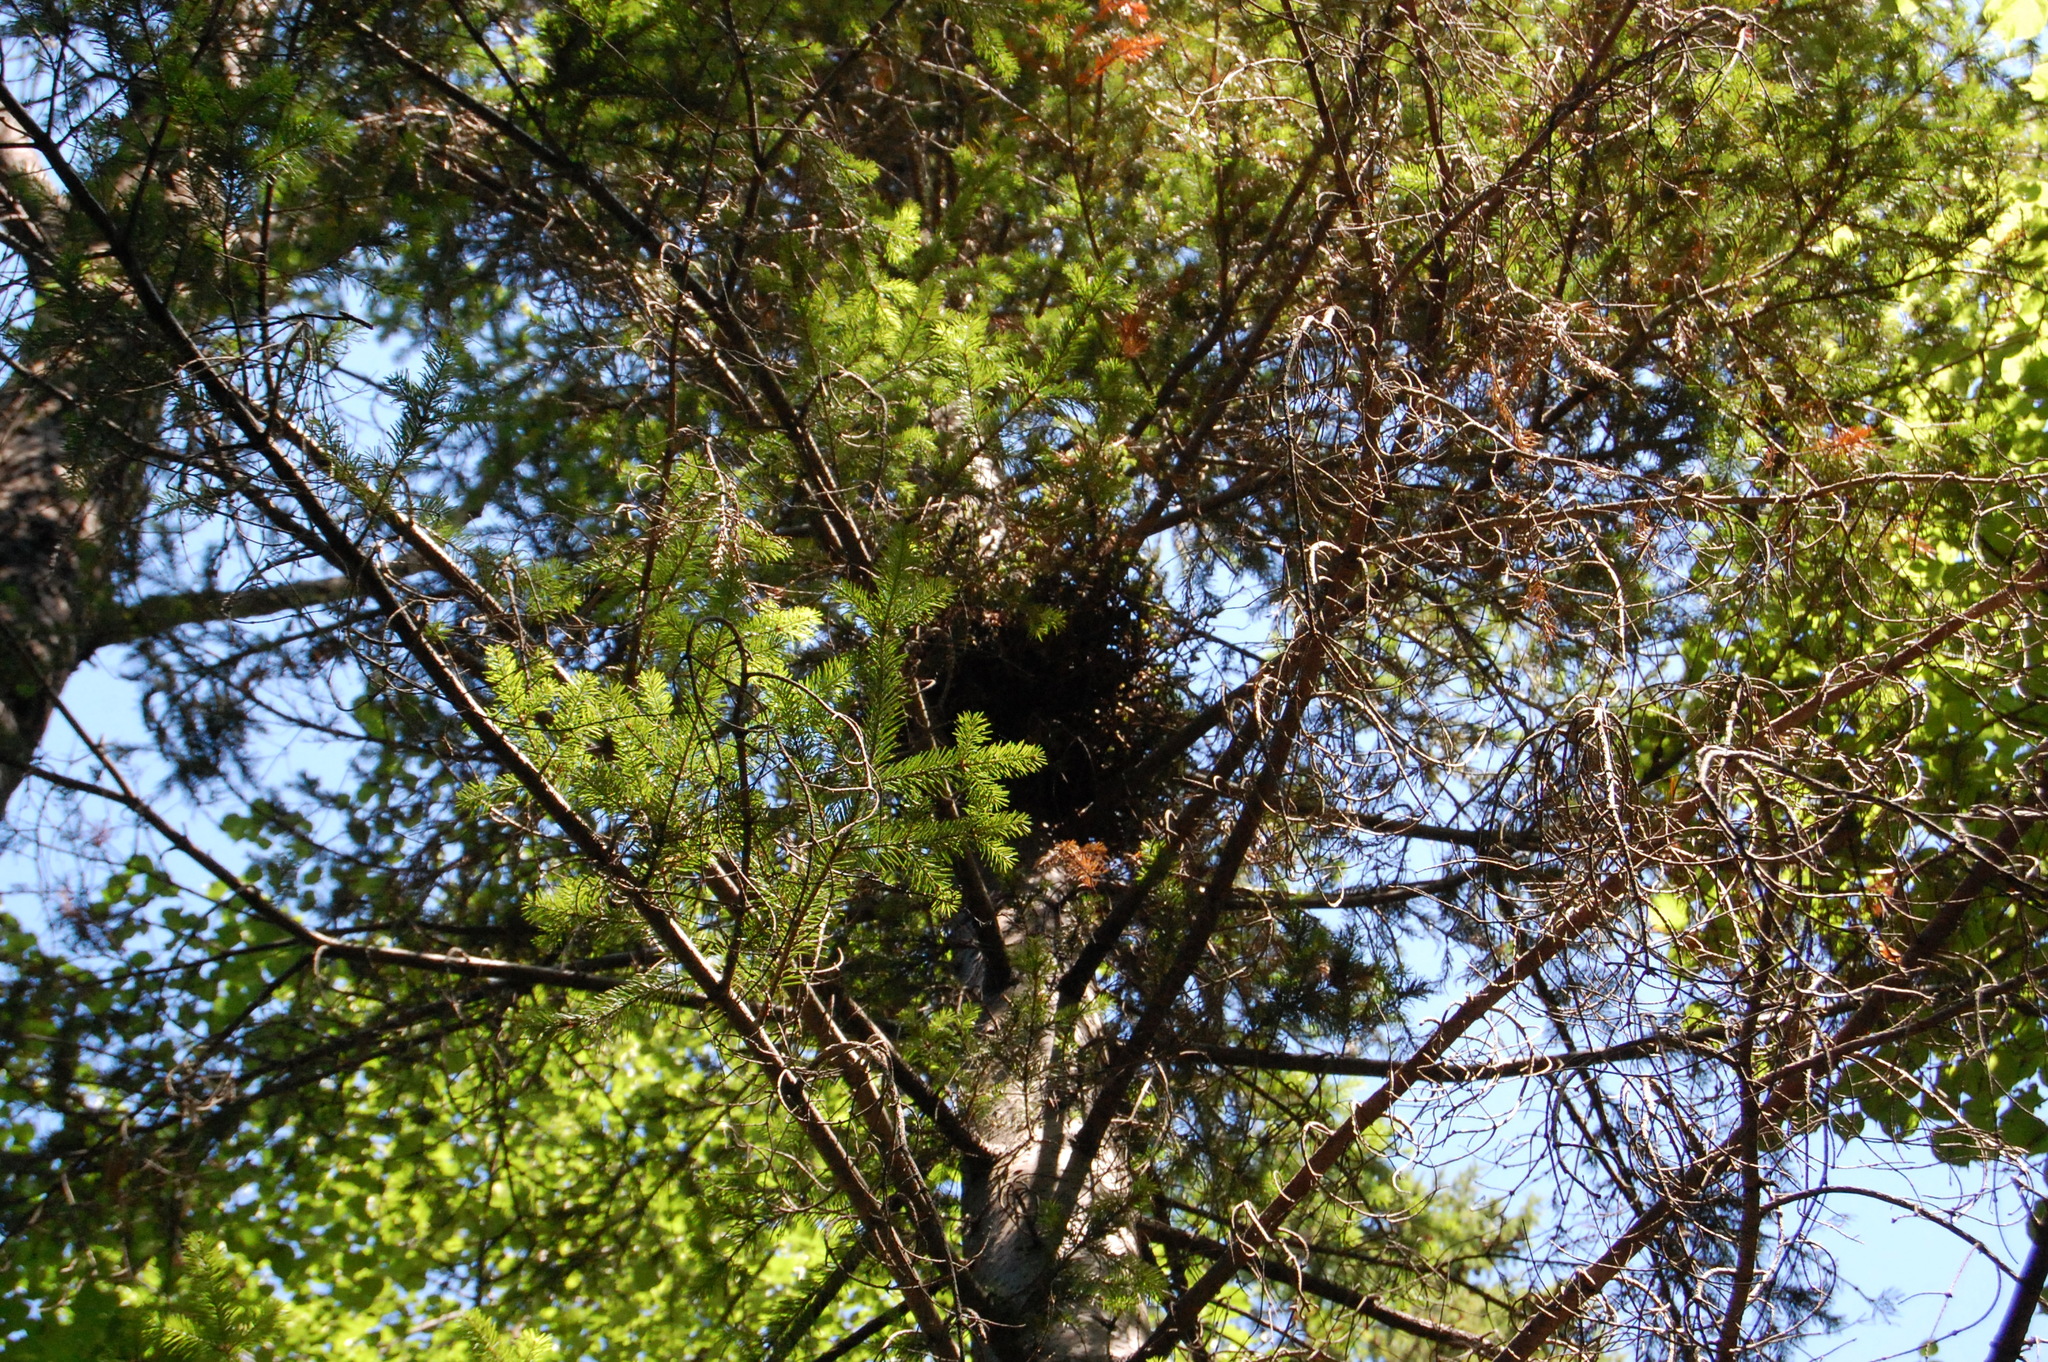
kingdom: Plantae
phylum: Tracheophyta
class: Pinopsida
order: Pinales
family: Pinaceae
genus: Abies
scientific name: Abies sibirica
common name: Siberian fir
